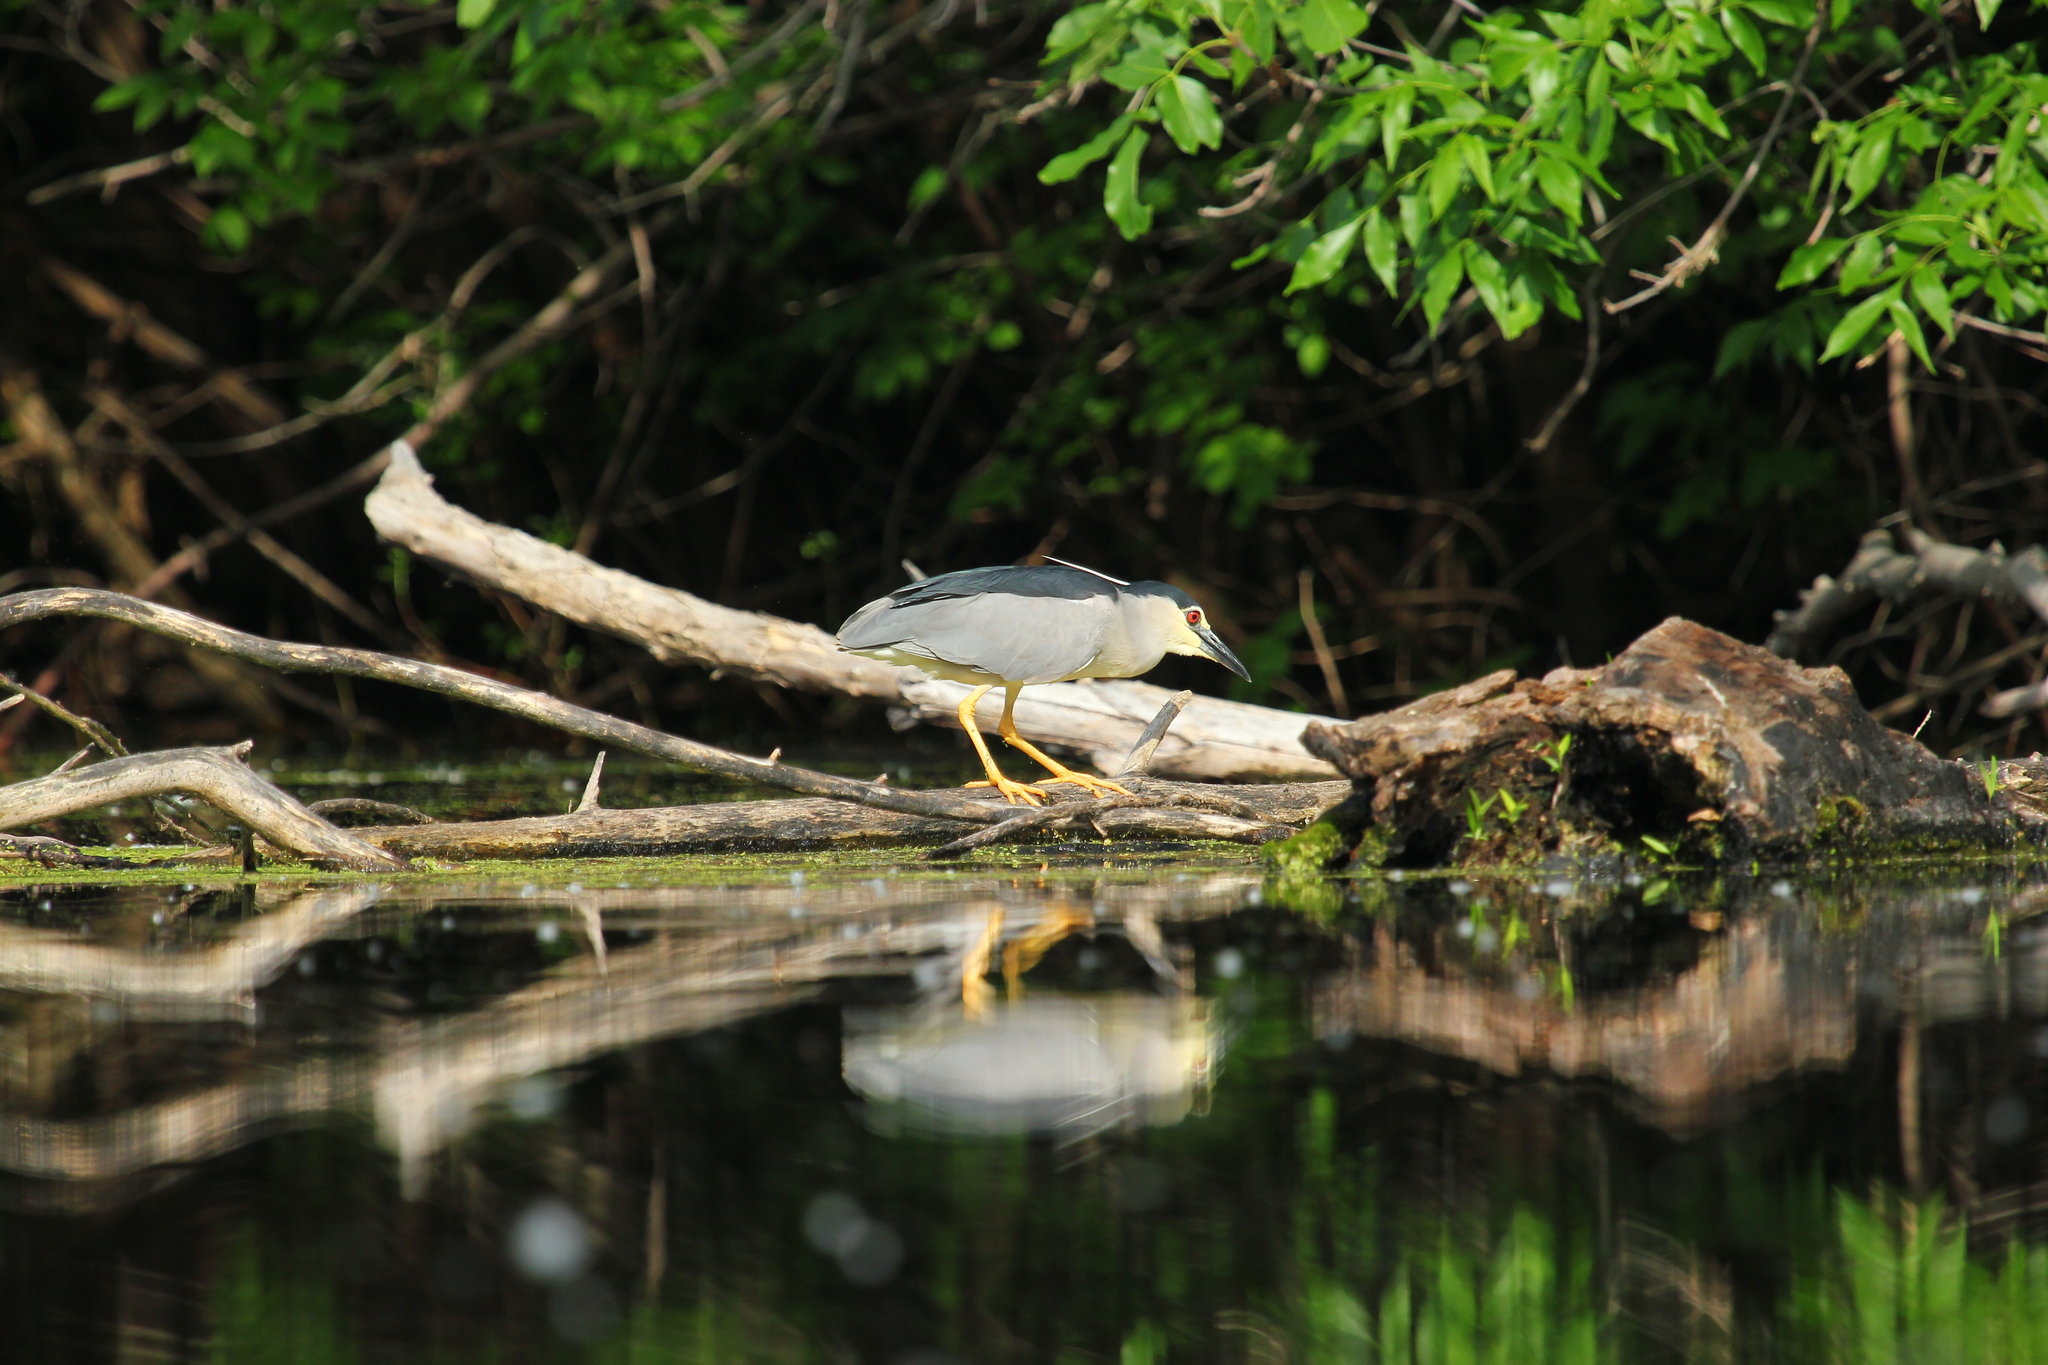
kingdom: Animalia
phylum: Chordata
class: Aves
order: Pelecaniformes
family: Ardeidae
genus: Nycticorax
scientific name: Nycticorax nycticorax
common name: Black-crowned night heron
